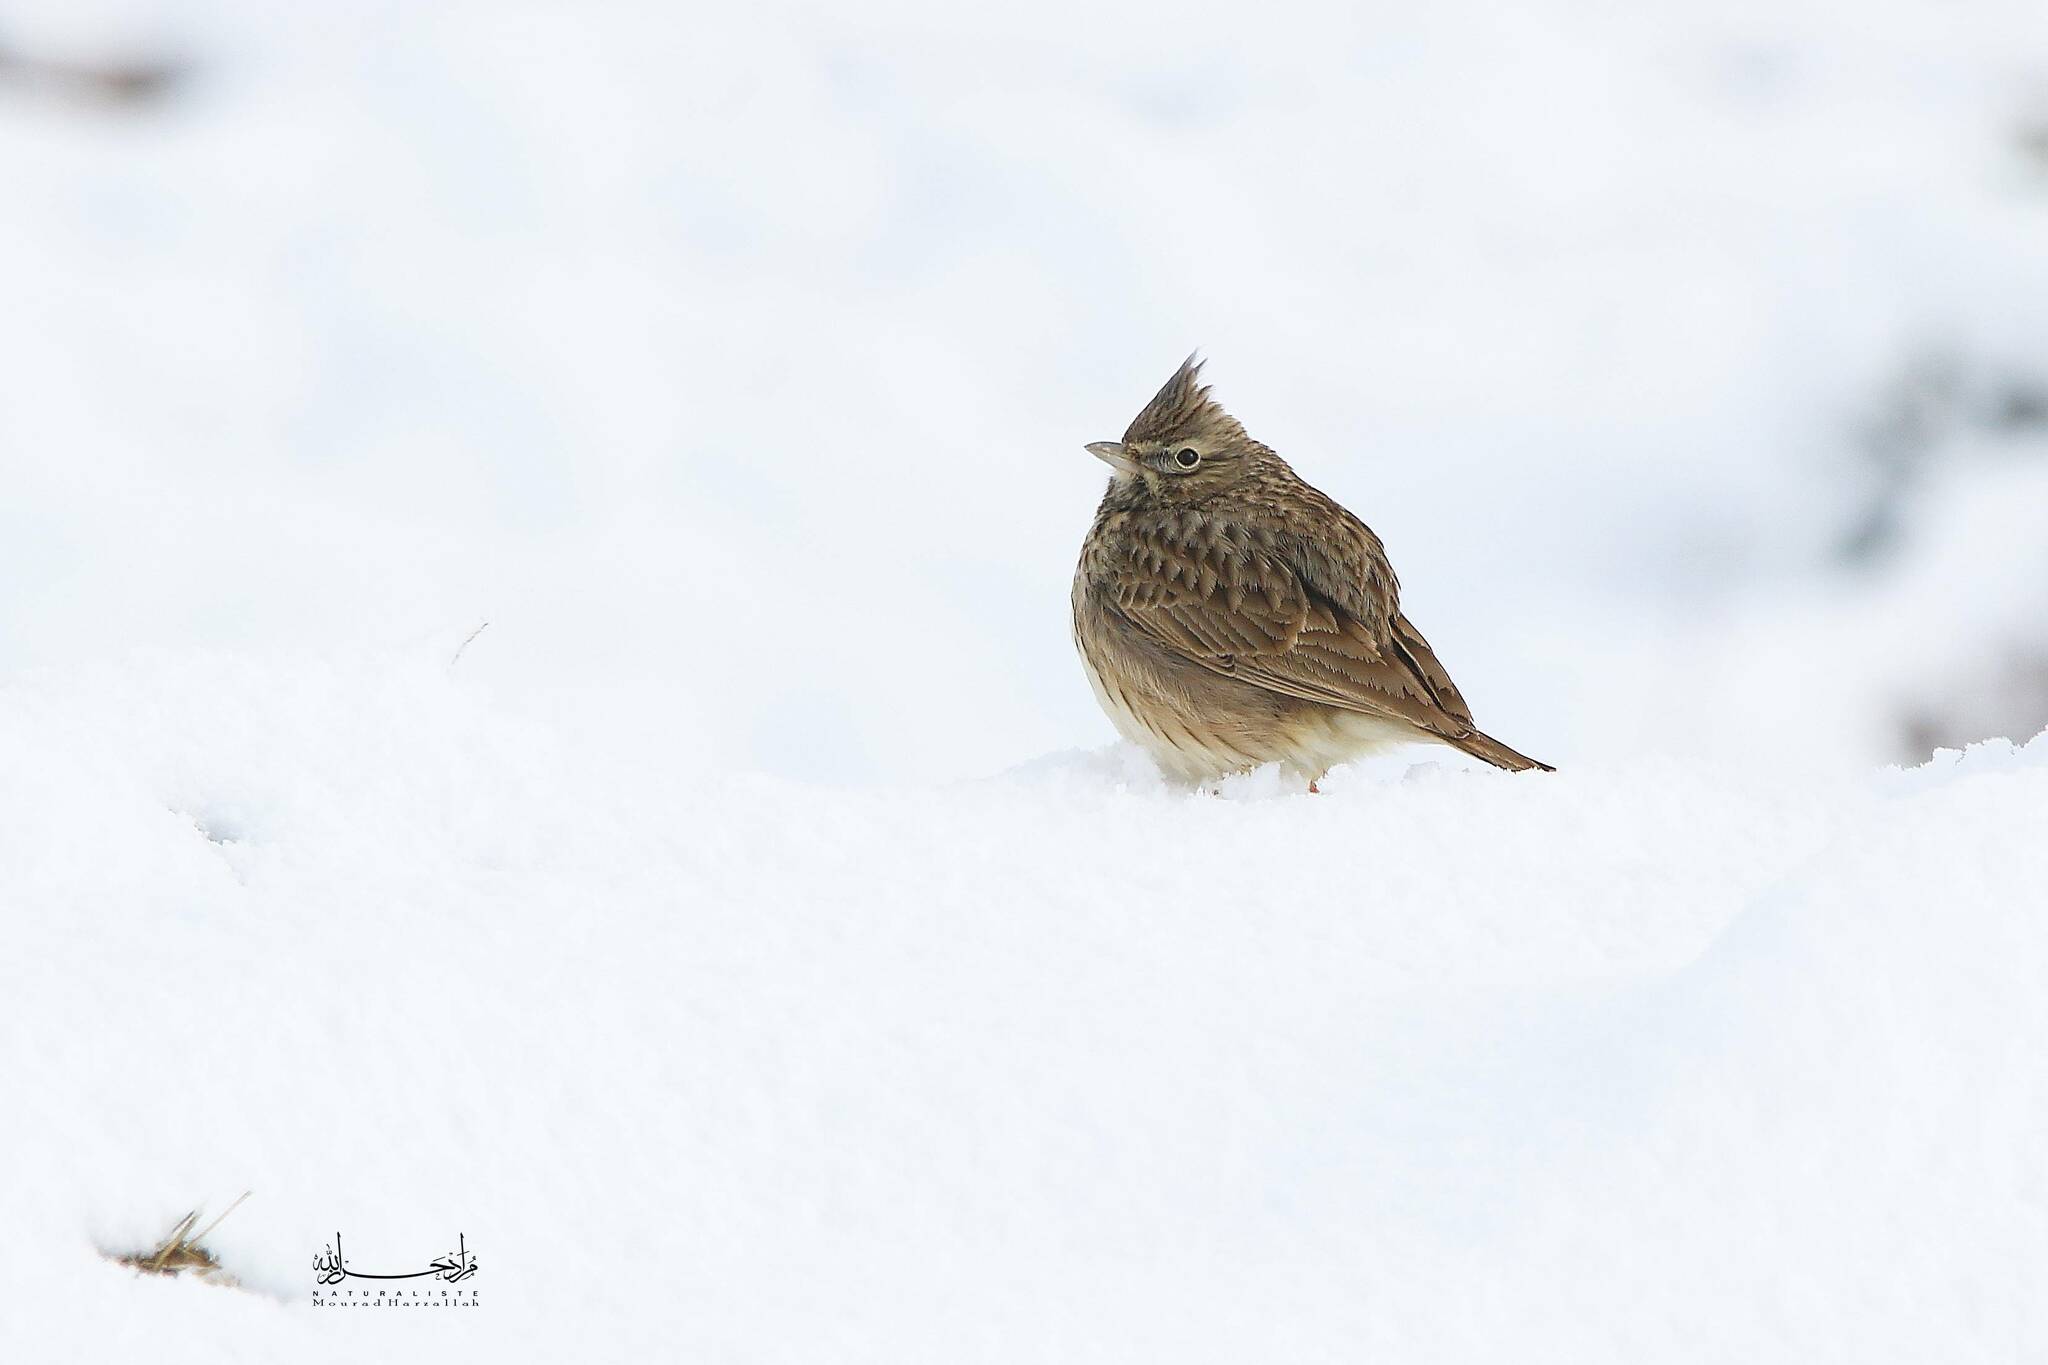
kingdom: Animalia
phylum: Chordata
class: Aves
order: Passeriformes
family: Alaudidae
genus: Galerida
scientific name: Galerida cristata
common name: Crested lark
